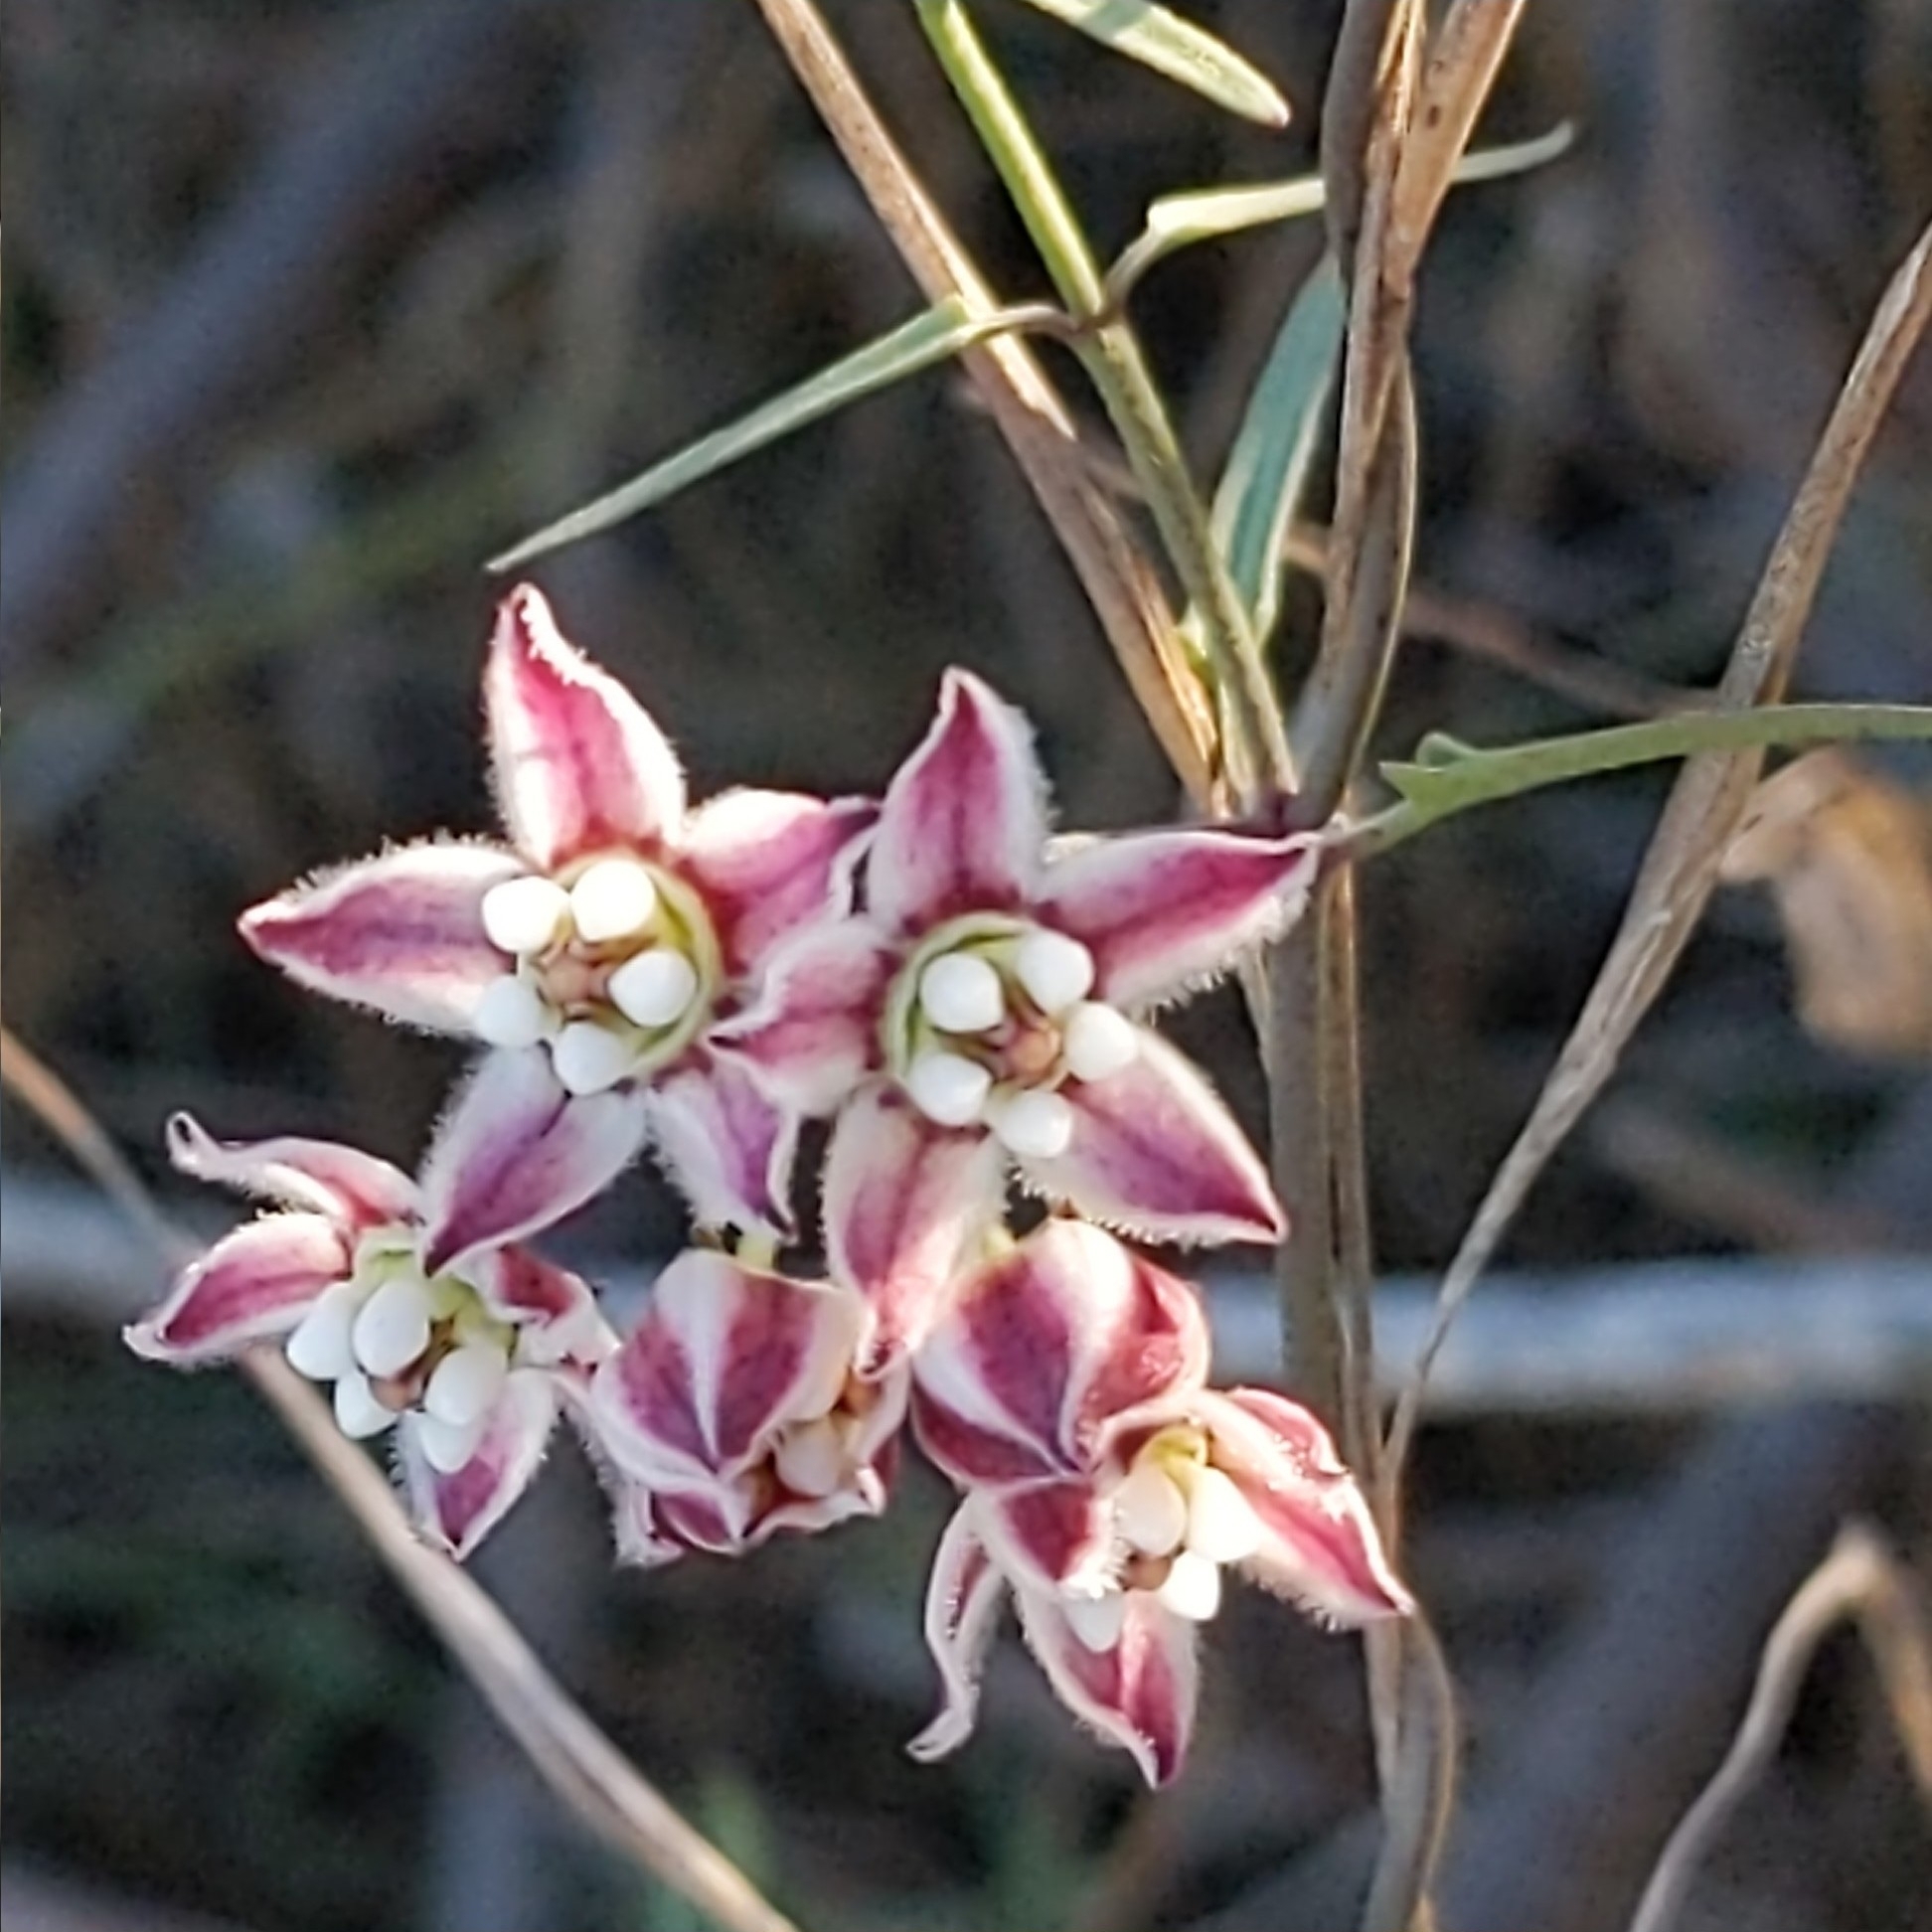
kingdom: Plantae
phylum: Tracheophyta
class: Magnoliopsida
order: Gentianales
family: Apocynaceae
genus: Funastrum
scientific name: Funastrum heterophyllum
